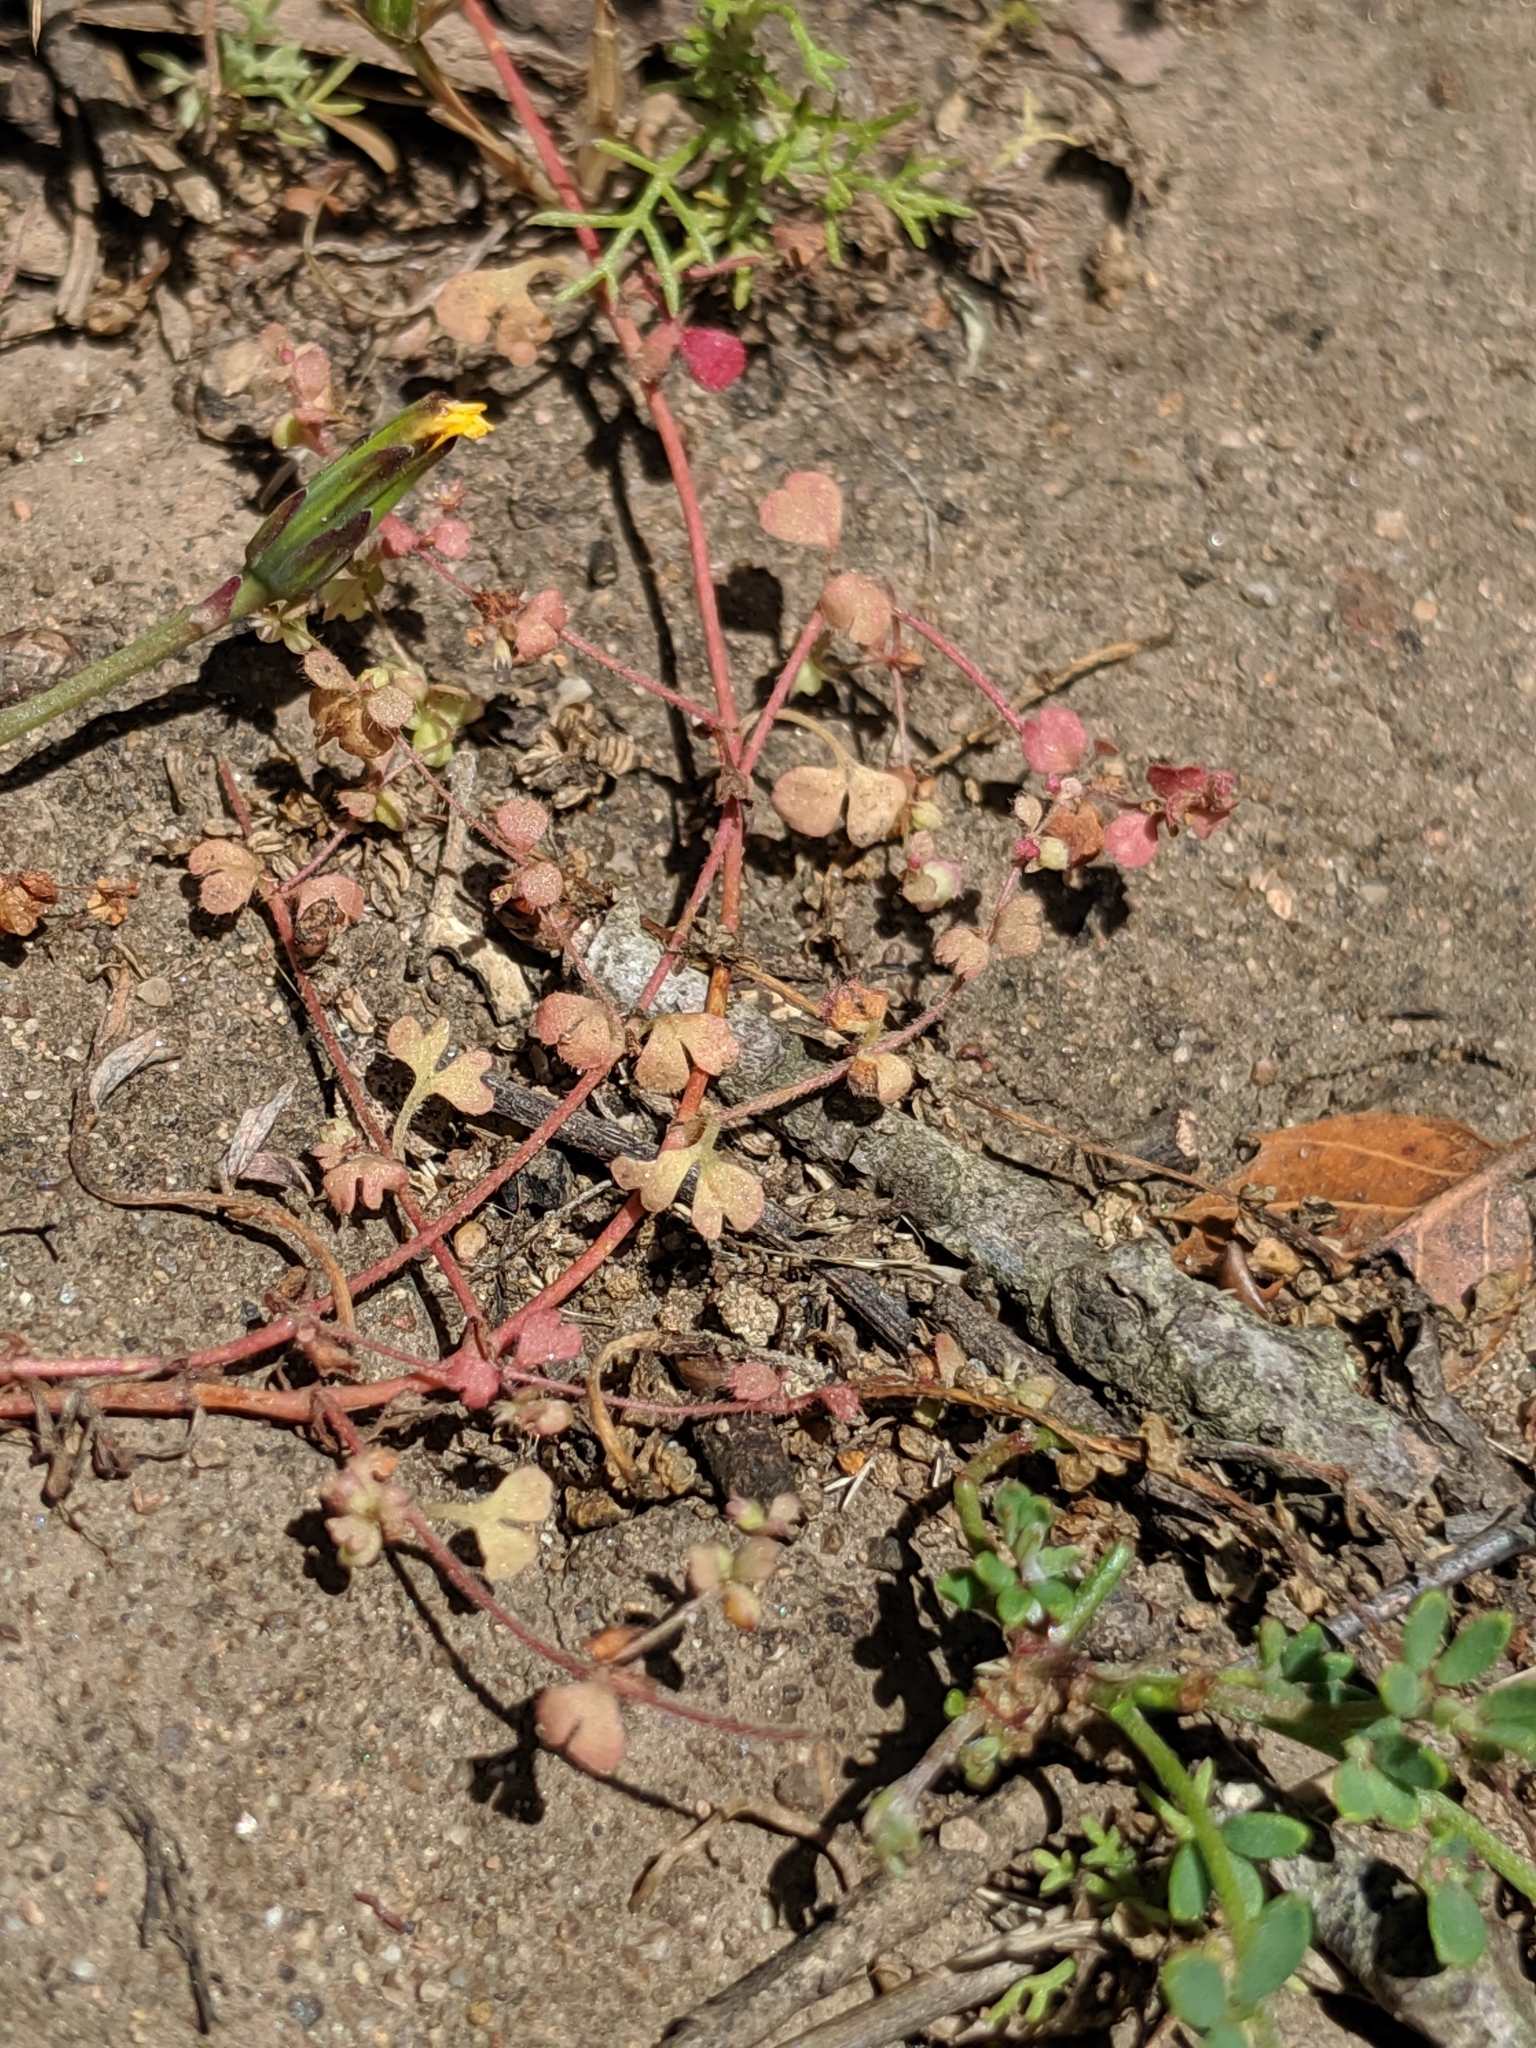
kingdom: Plantae
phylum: Tracheophyta
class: Magnoliopsida
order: Caryophyllales
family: Polygonaceae
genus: Pterostegia
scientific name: Pterostegia drymarioides
